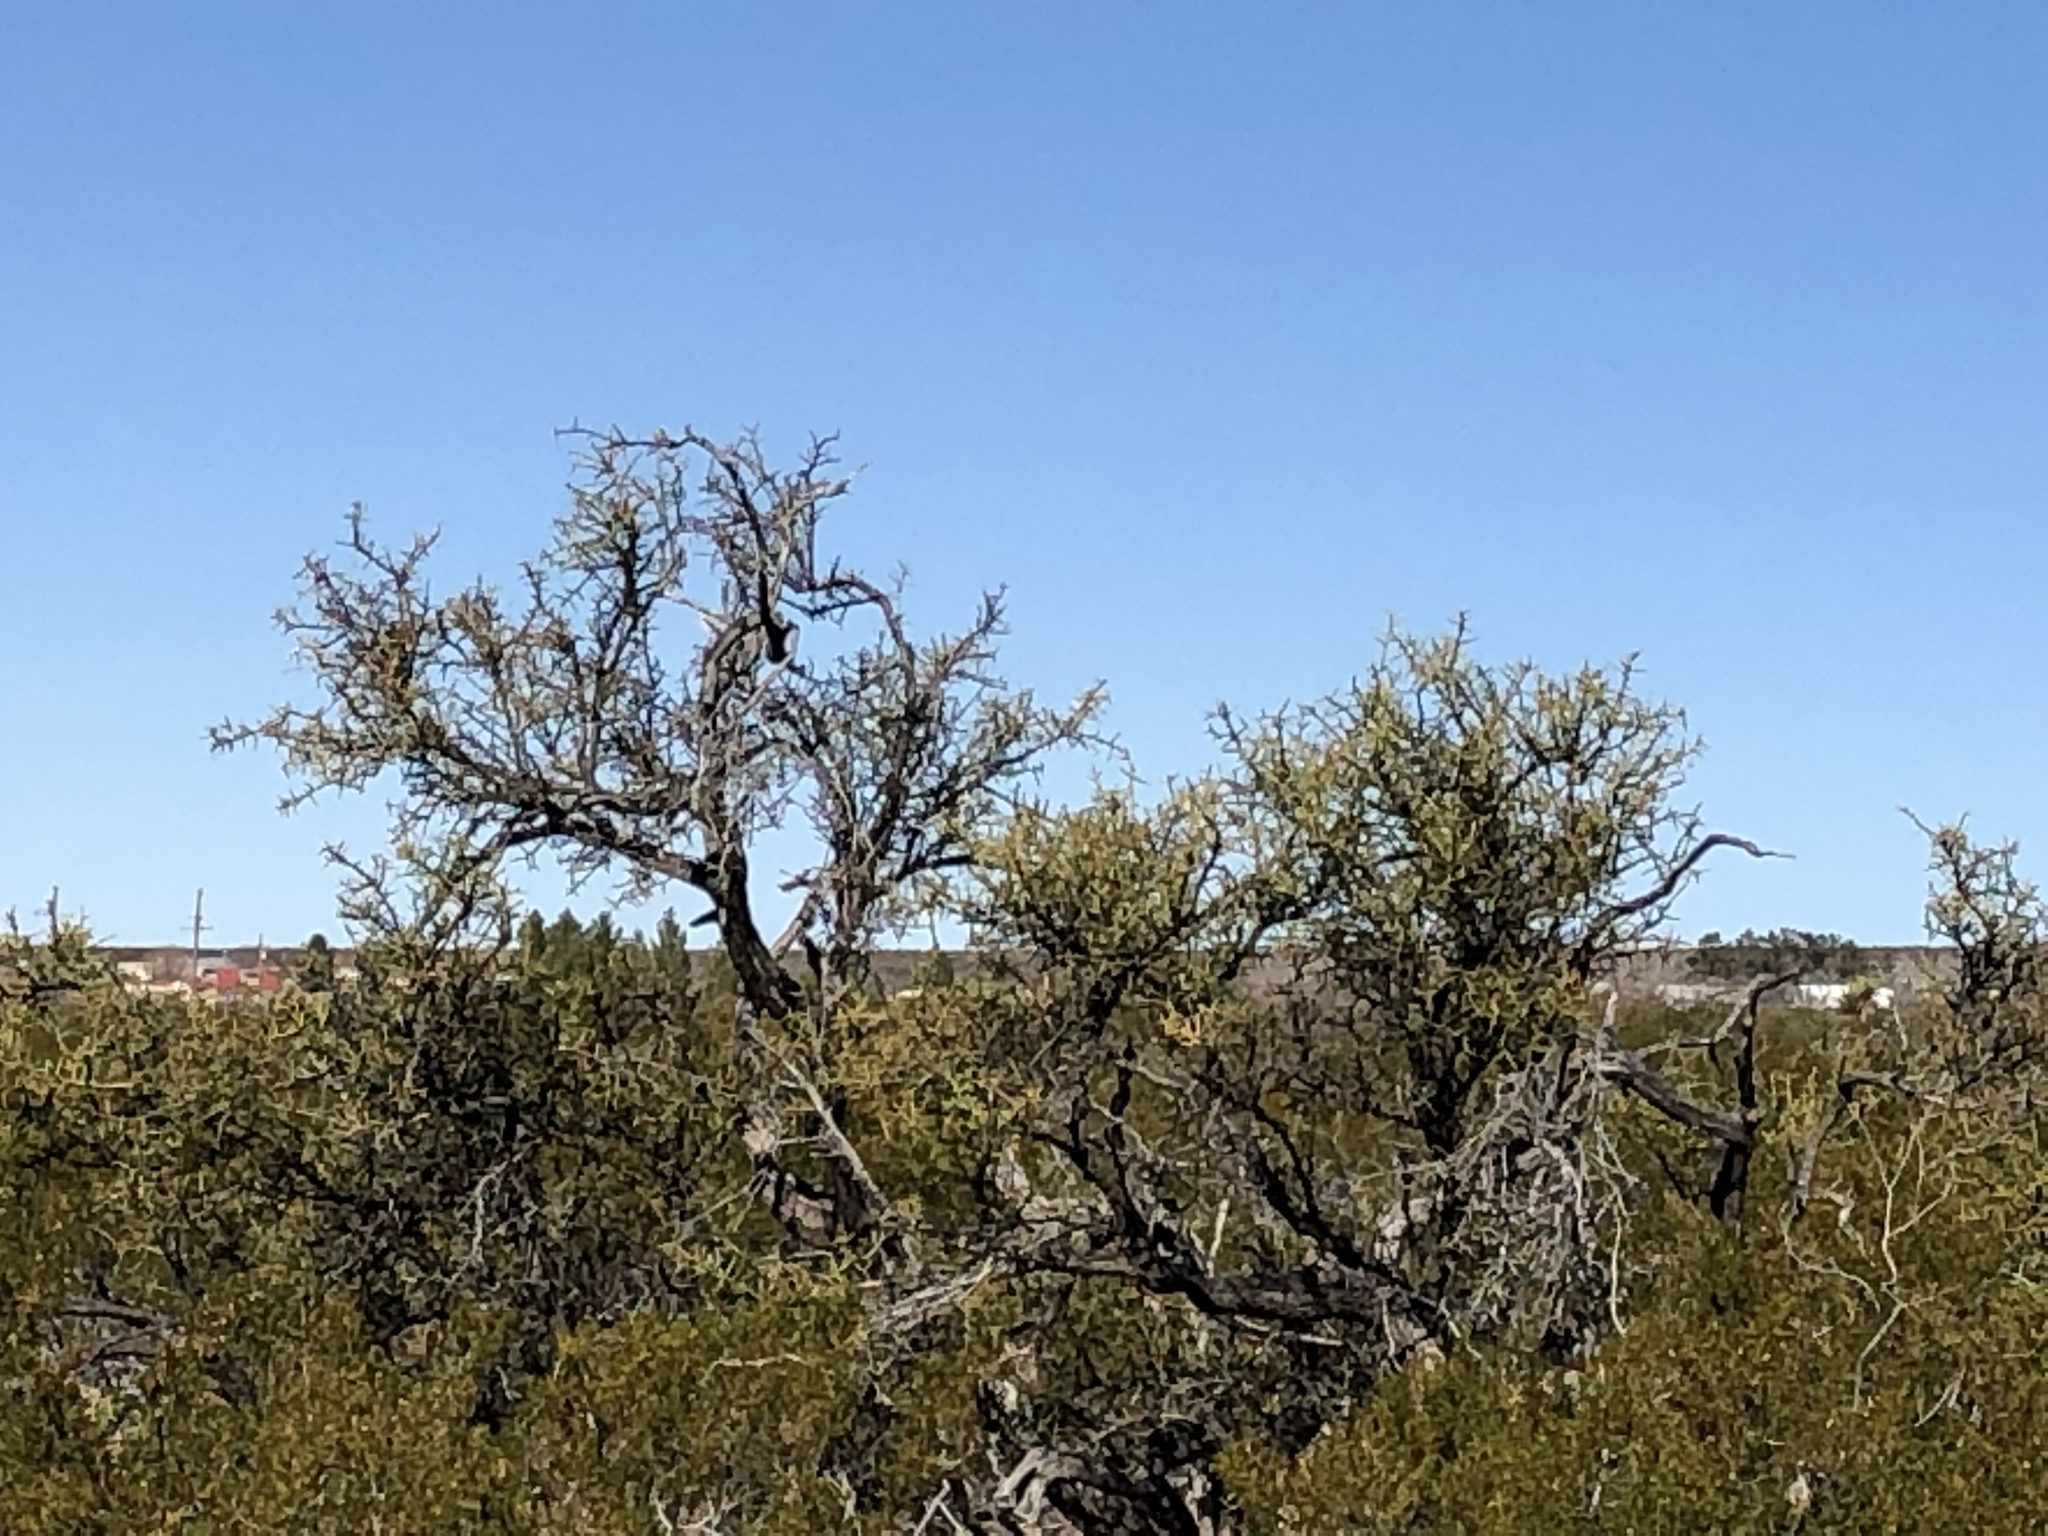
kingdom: Plantae
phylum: Tracheophyta
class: Magnoliopsida
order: Brassicales
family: Koeberliniaceae
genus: Koeberlinia
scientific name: Koeberlinia spinosa
